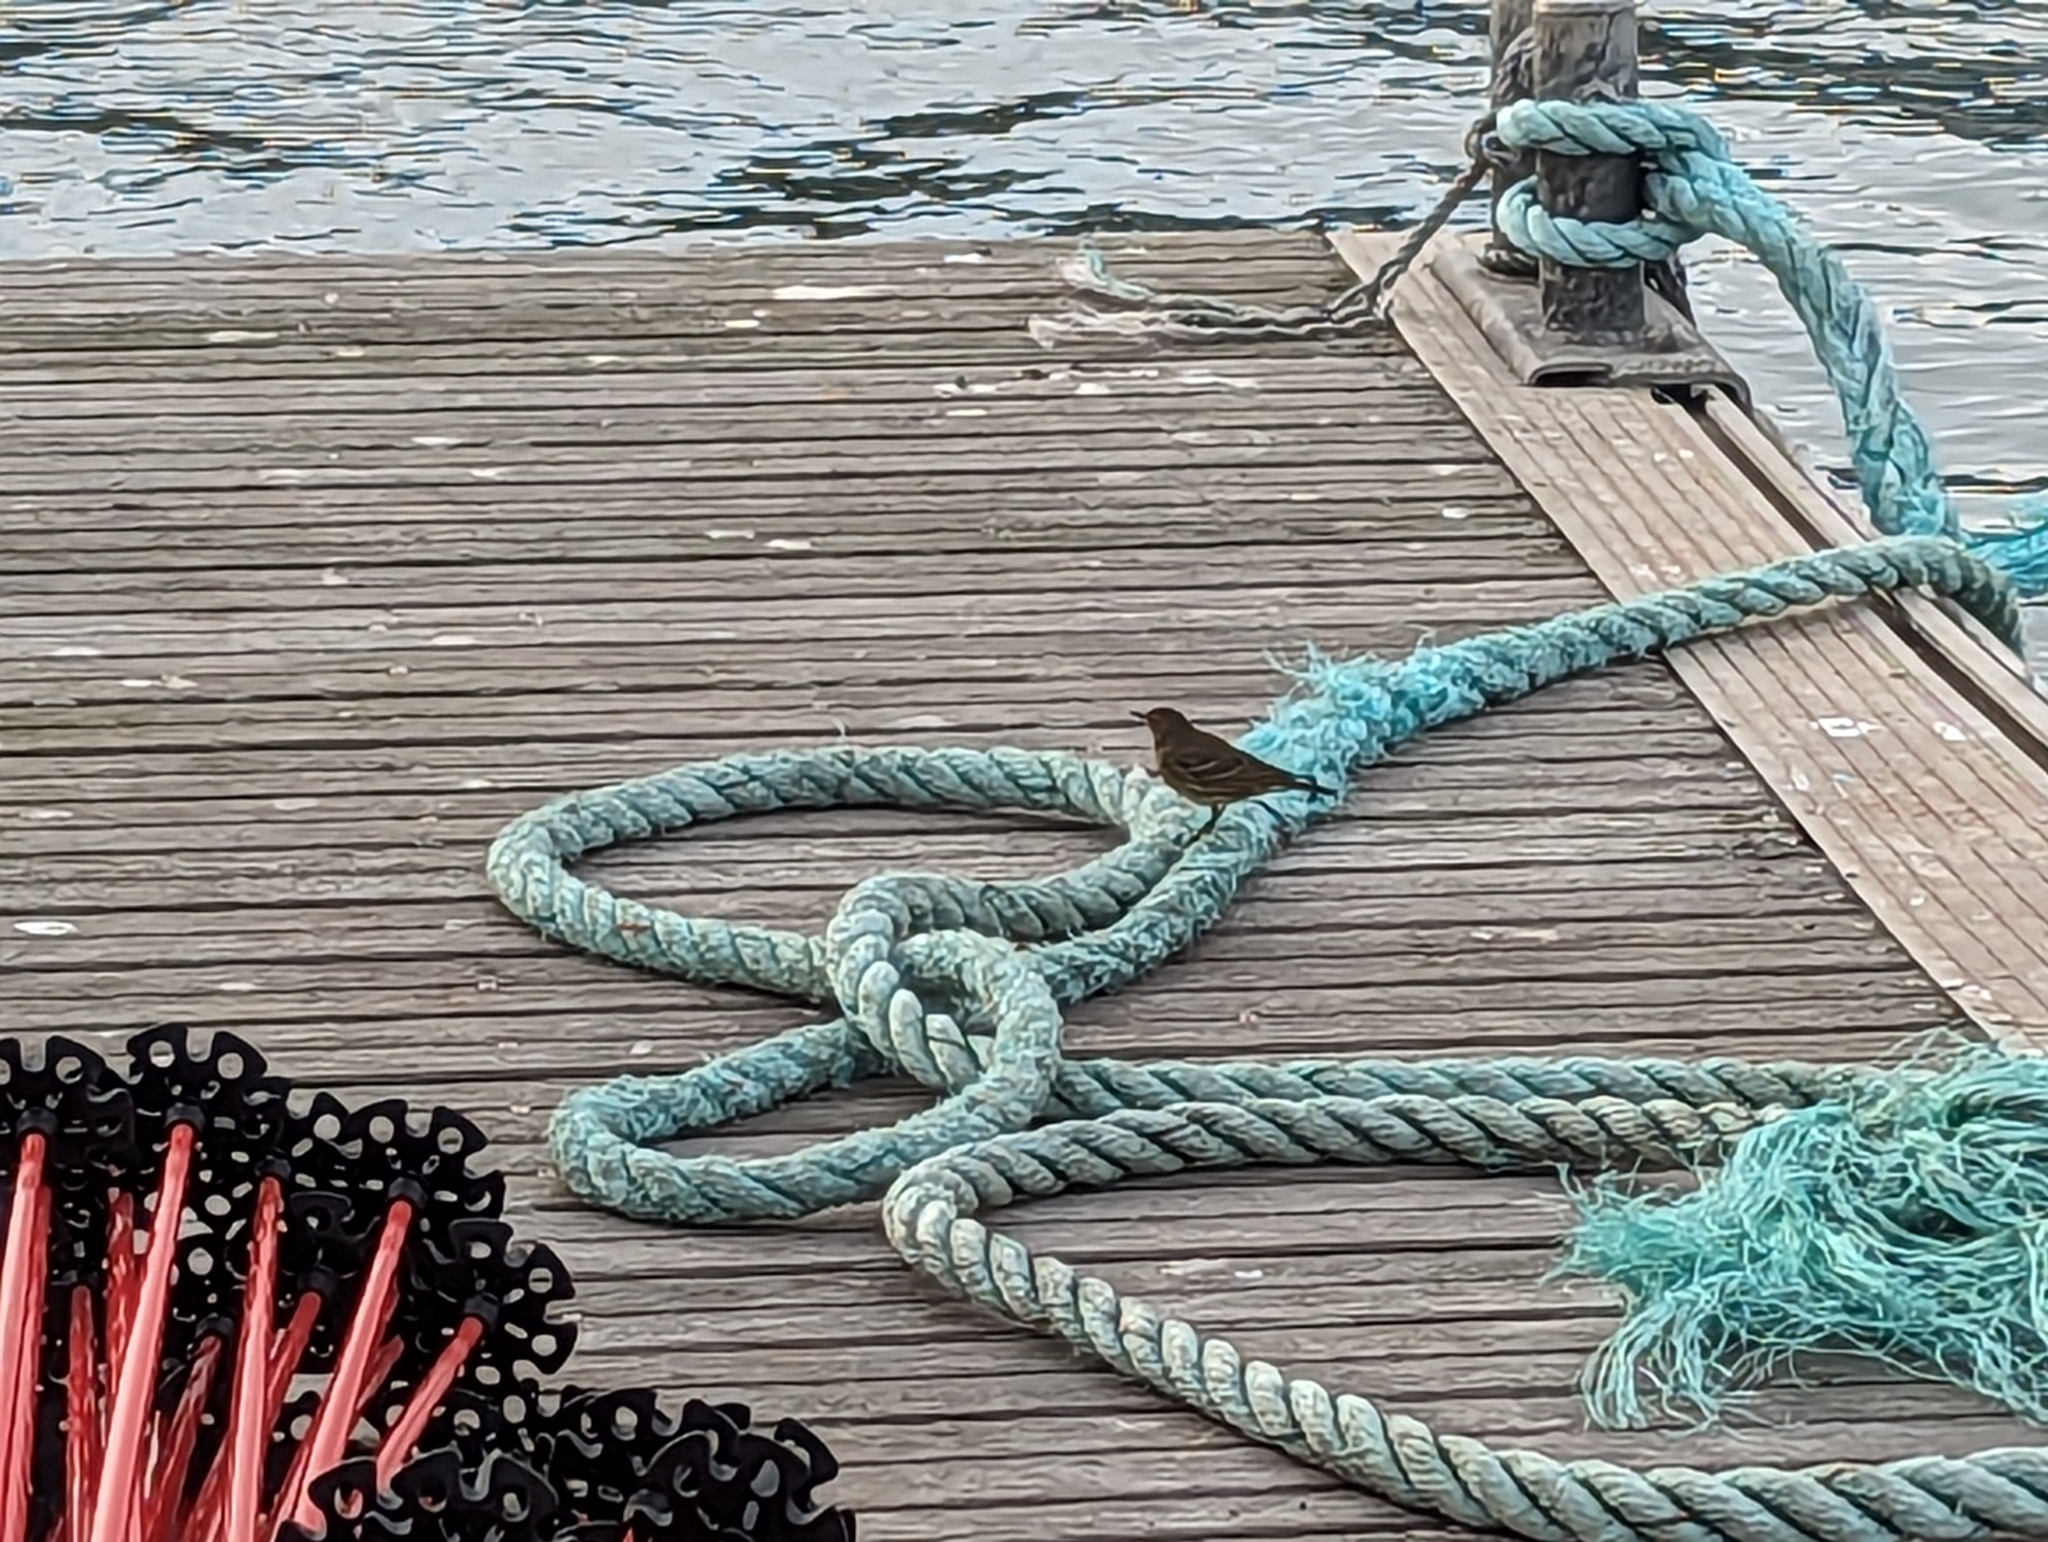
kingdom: Animalia
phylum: Chordata
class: Aves
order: Passeriformes
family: Motacillidae
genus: Anthus
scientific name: Anthus petrosus
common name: Eurasian rock pipit
